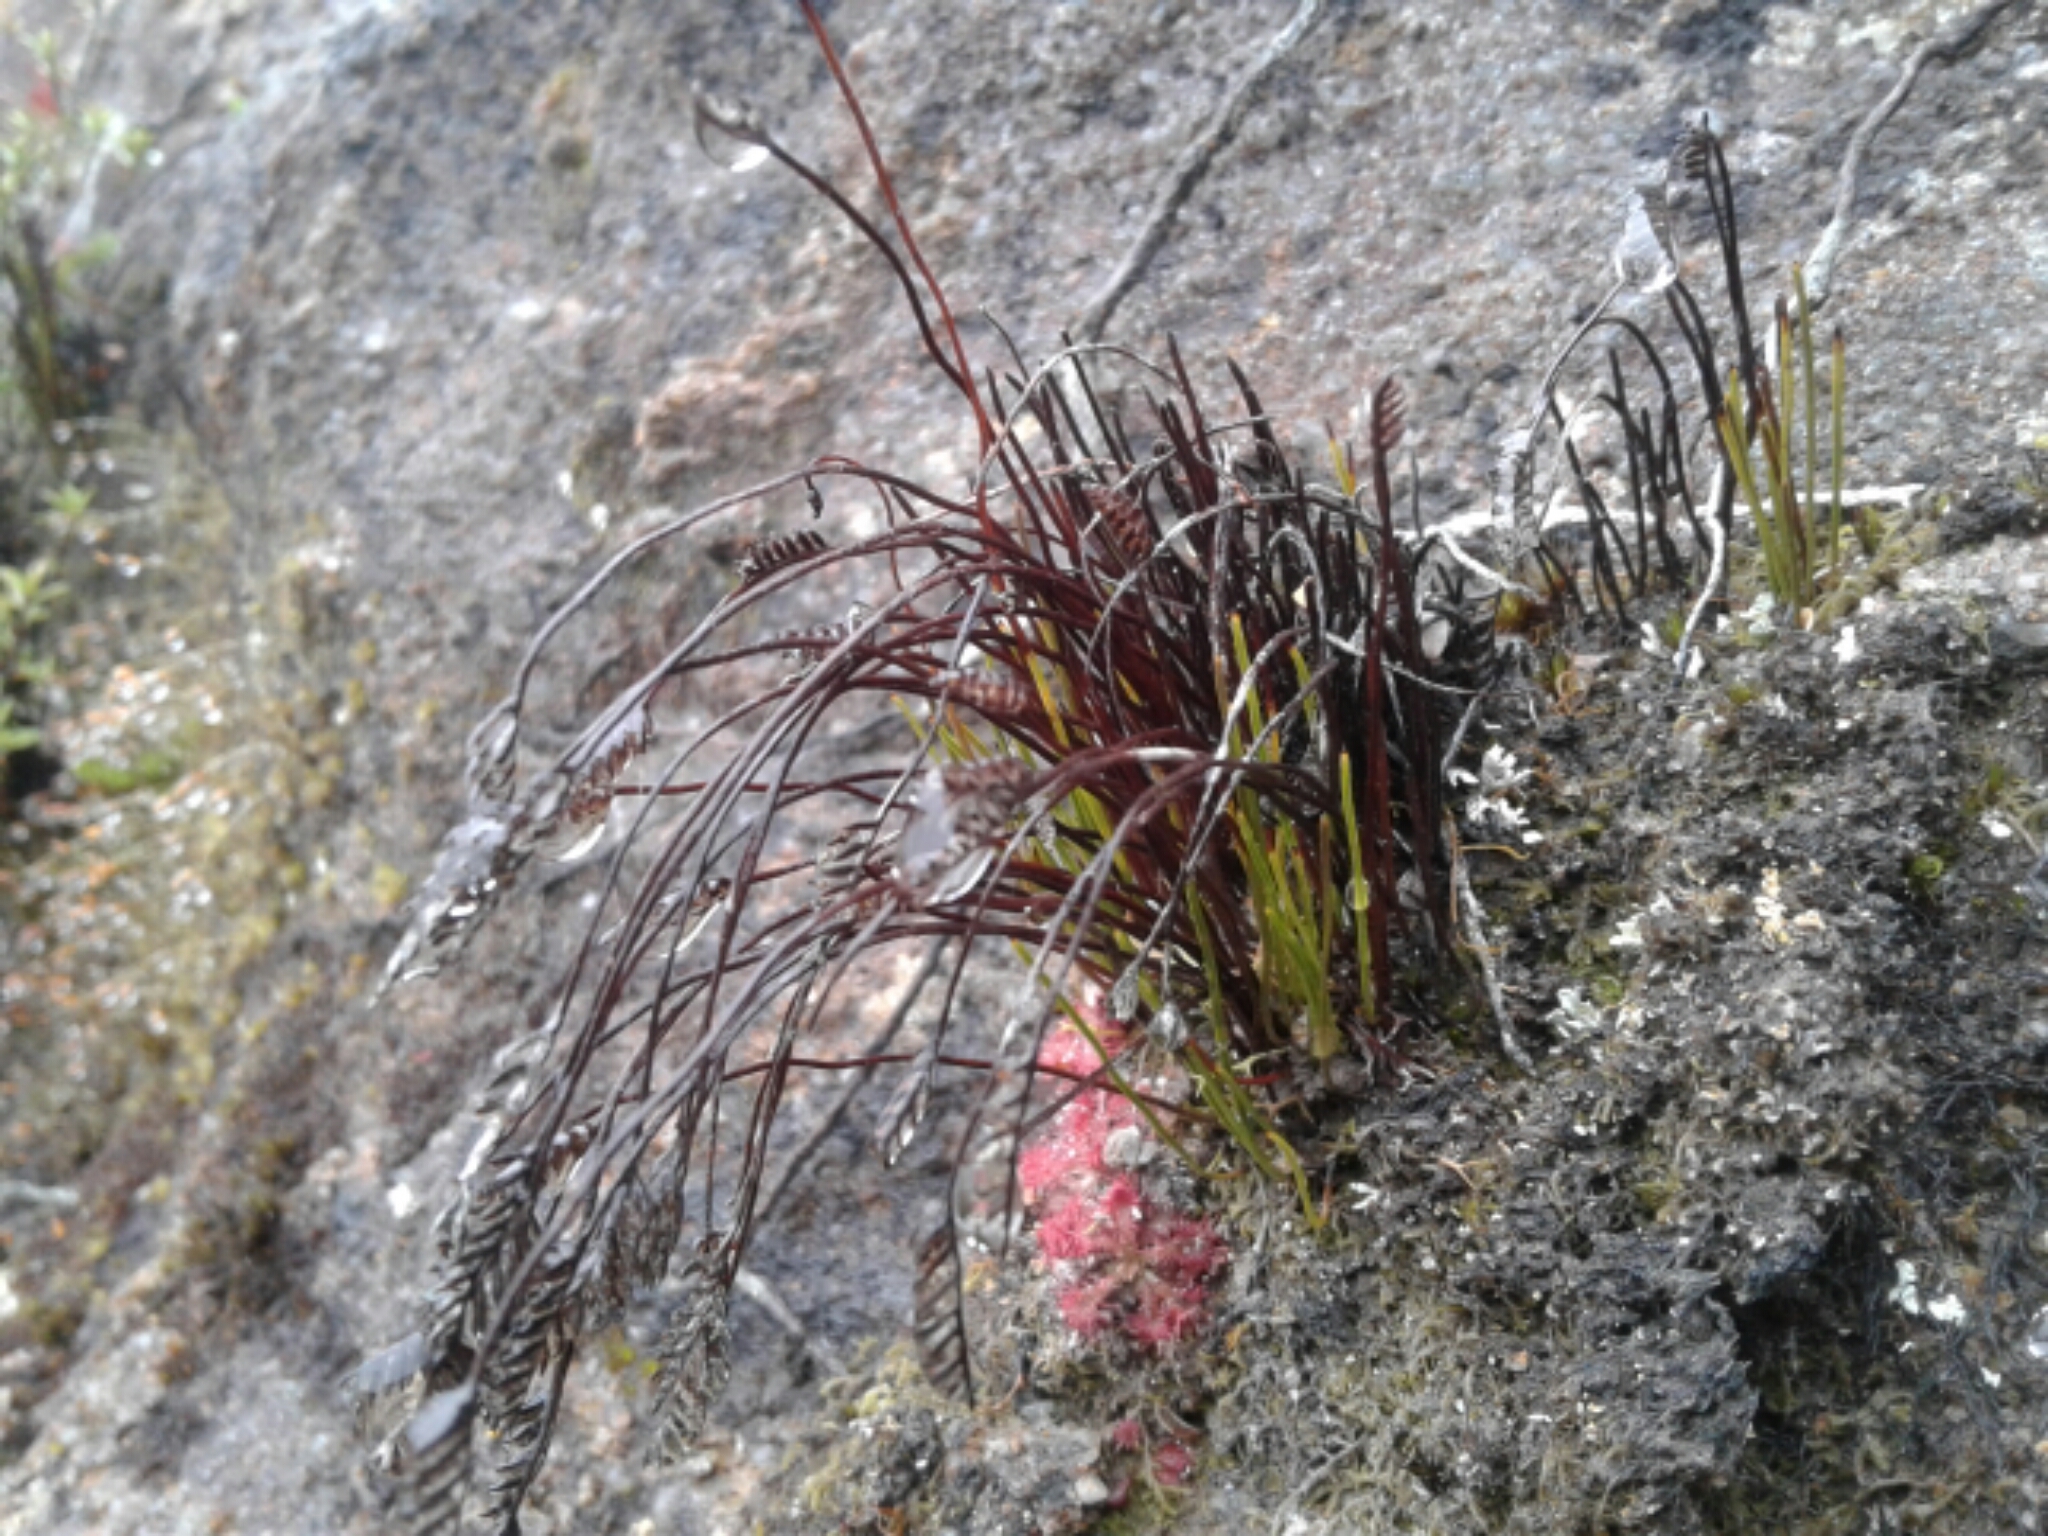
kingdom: Plantae
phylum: Tracheophyta
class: Polypodiopsida
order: Schizaeales
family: Schizaeaceae
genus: Microschizaea
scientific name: Microschizaea australis
